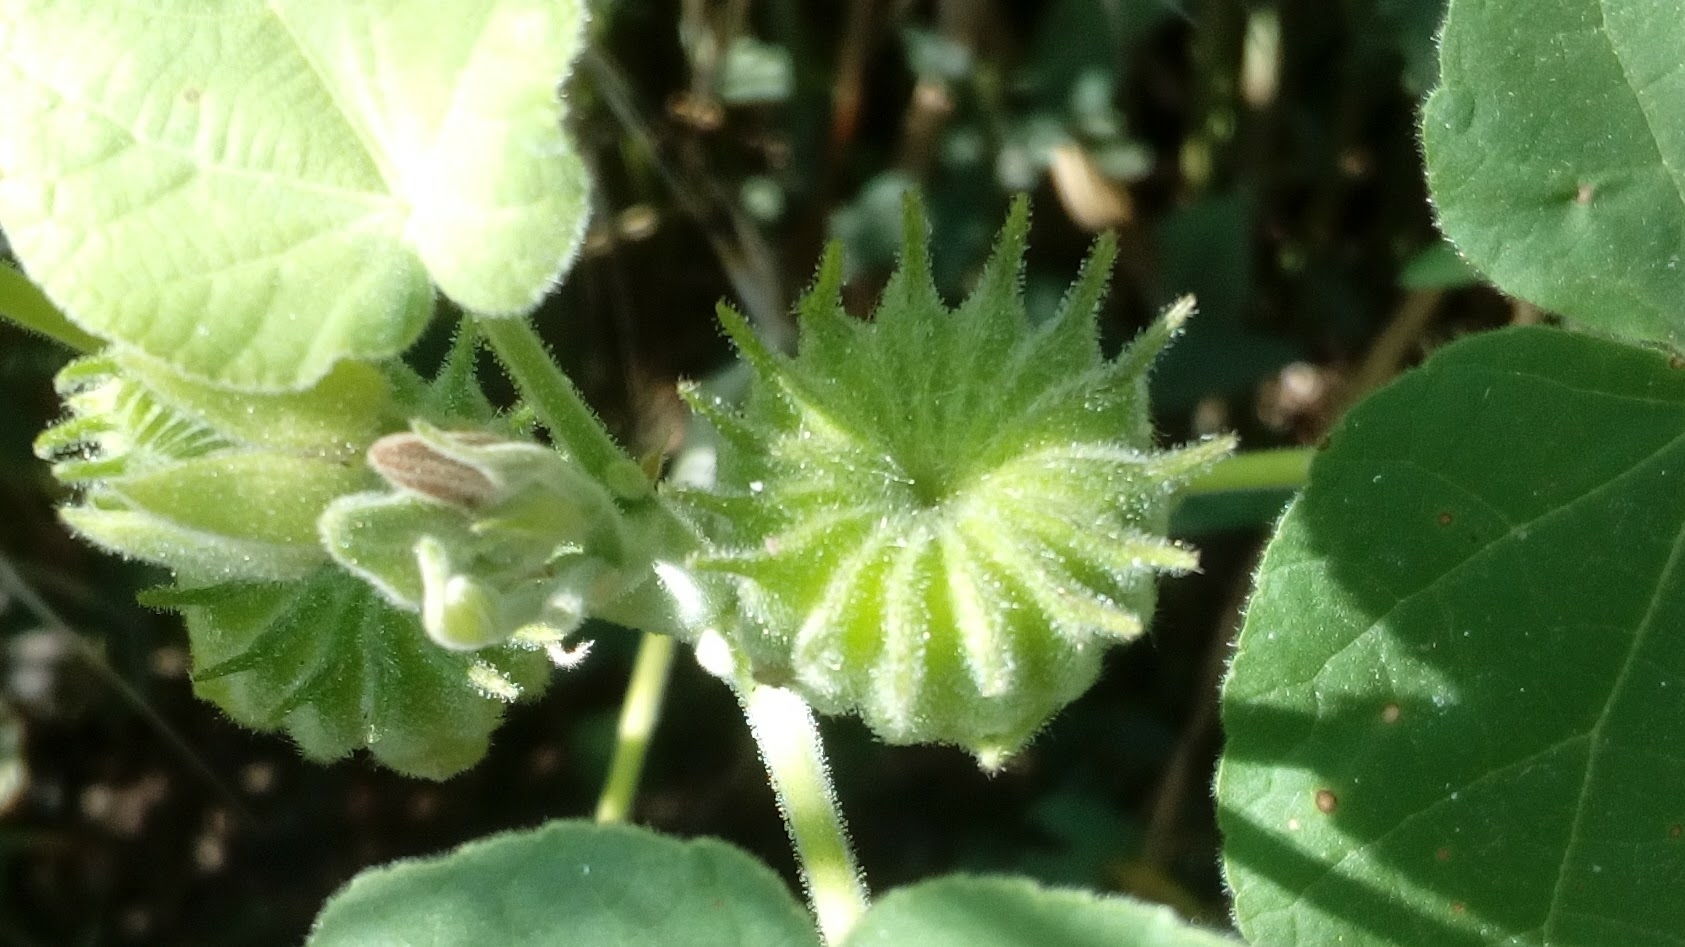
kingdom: Plantae
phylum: Tracheophyta
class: Magnoliopsida
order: Malvales
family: Malvaceae
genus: Abutilon
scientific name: Abutilon theophrasti
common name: Velvetleaf
